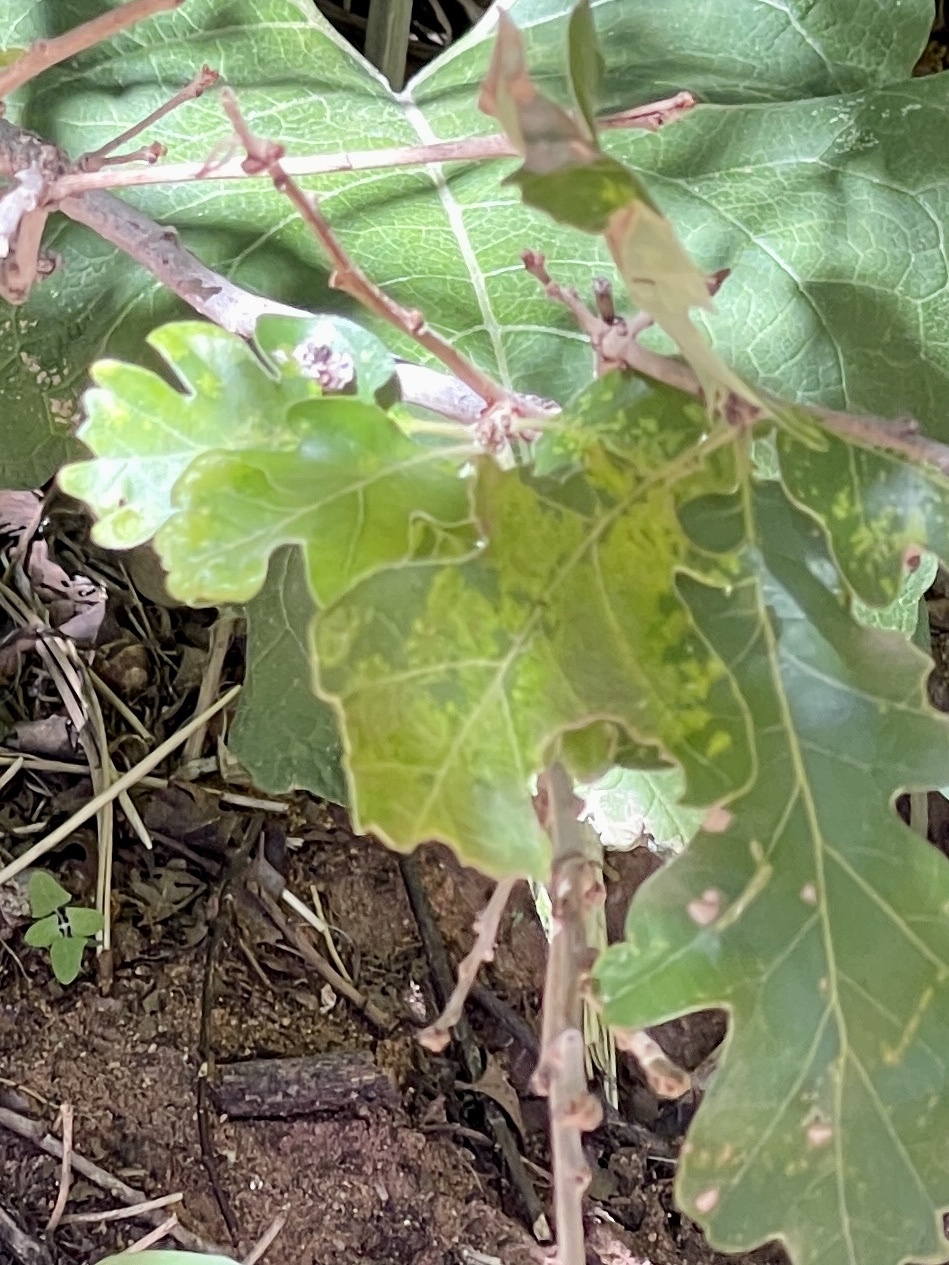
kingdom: Plantae
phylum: Tracheophyta
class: Magnoliopsida
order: Fagales
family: Fagaceae
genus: Quercus
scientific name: Quercus gambelii
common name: Gambel oak
